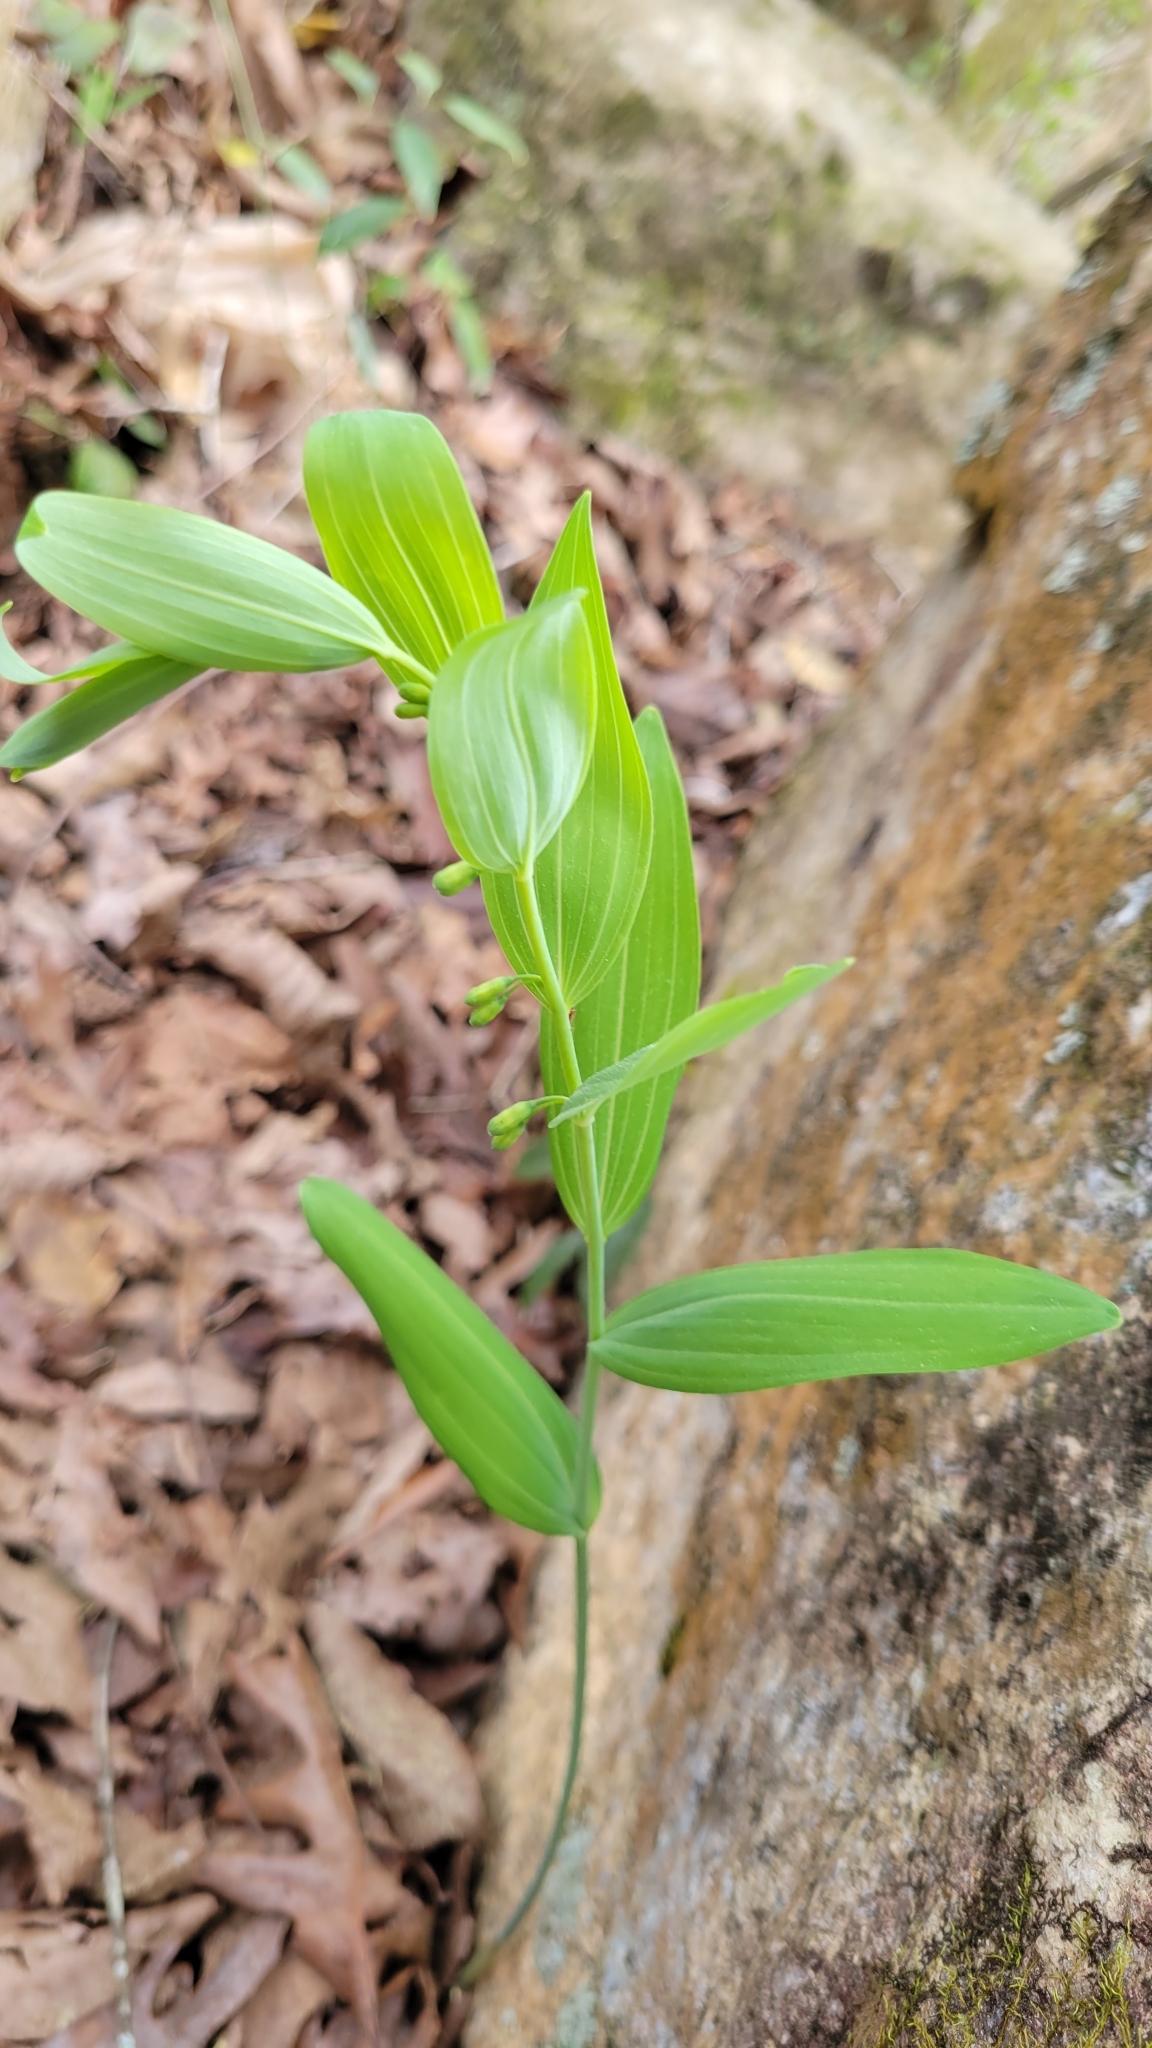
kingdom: Plantae
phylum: Tracheophyta
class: Liliopsida
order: Asparagales
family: Asparagaceae
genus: Polygonatum
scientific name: Polygonatum biflorum
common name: American solomon's-seal
